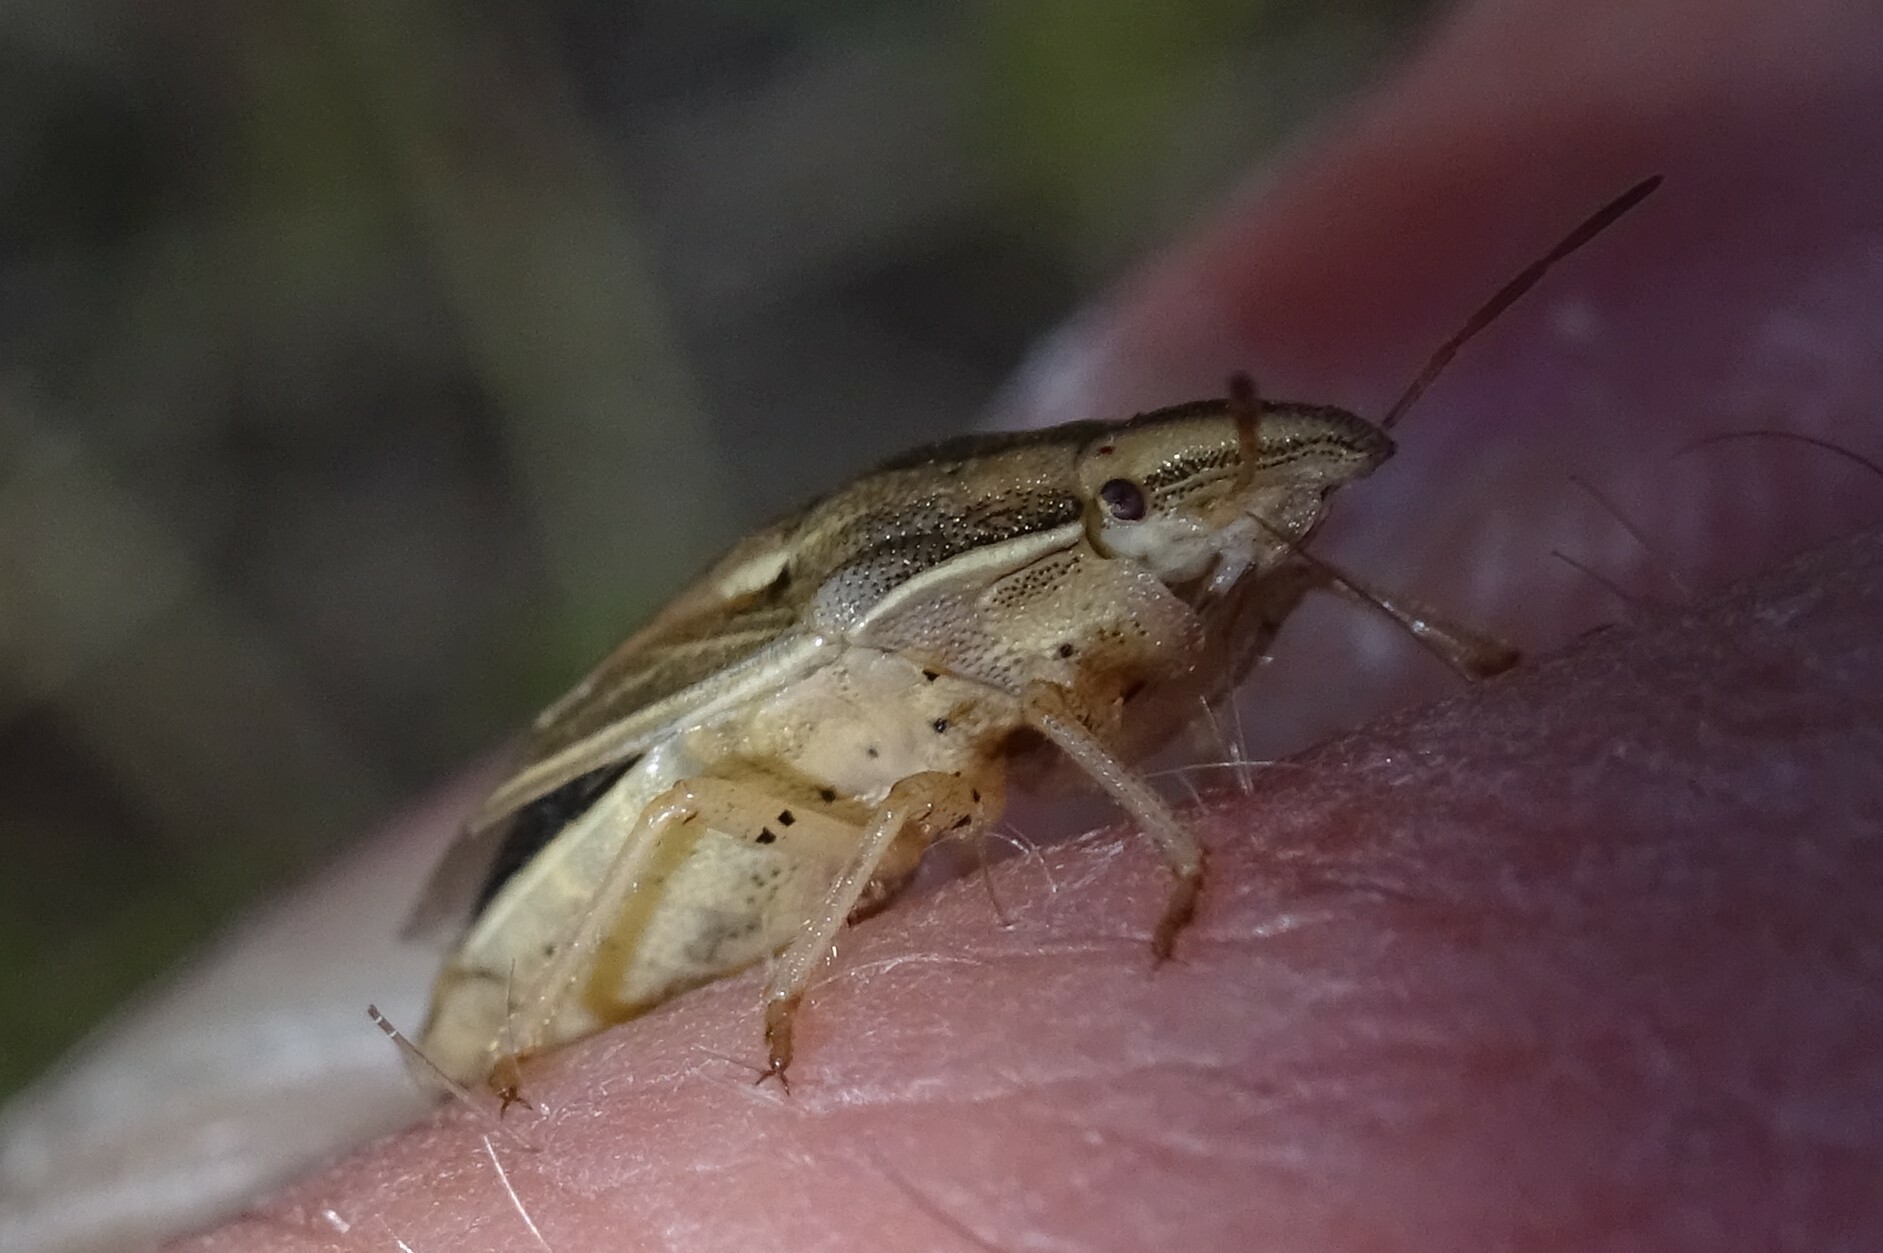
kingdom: Animalia
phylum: Arthropoda
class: Insecta
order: Hemiptera
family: Pentatomidae
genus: Aelia
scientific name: Aelia acuminata
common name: Bishop's mitre
